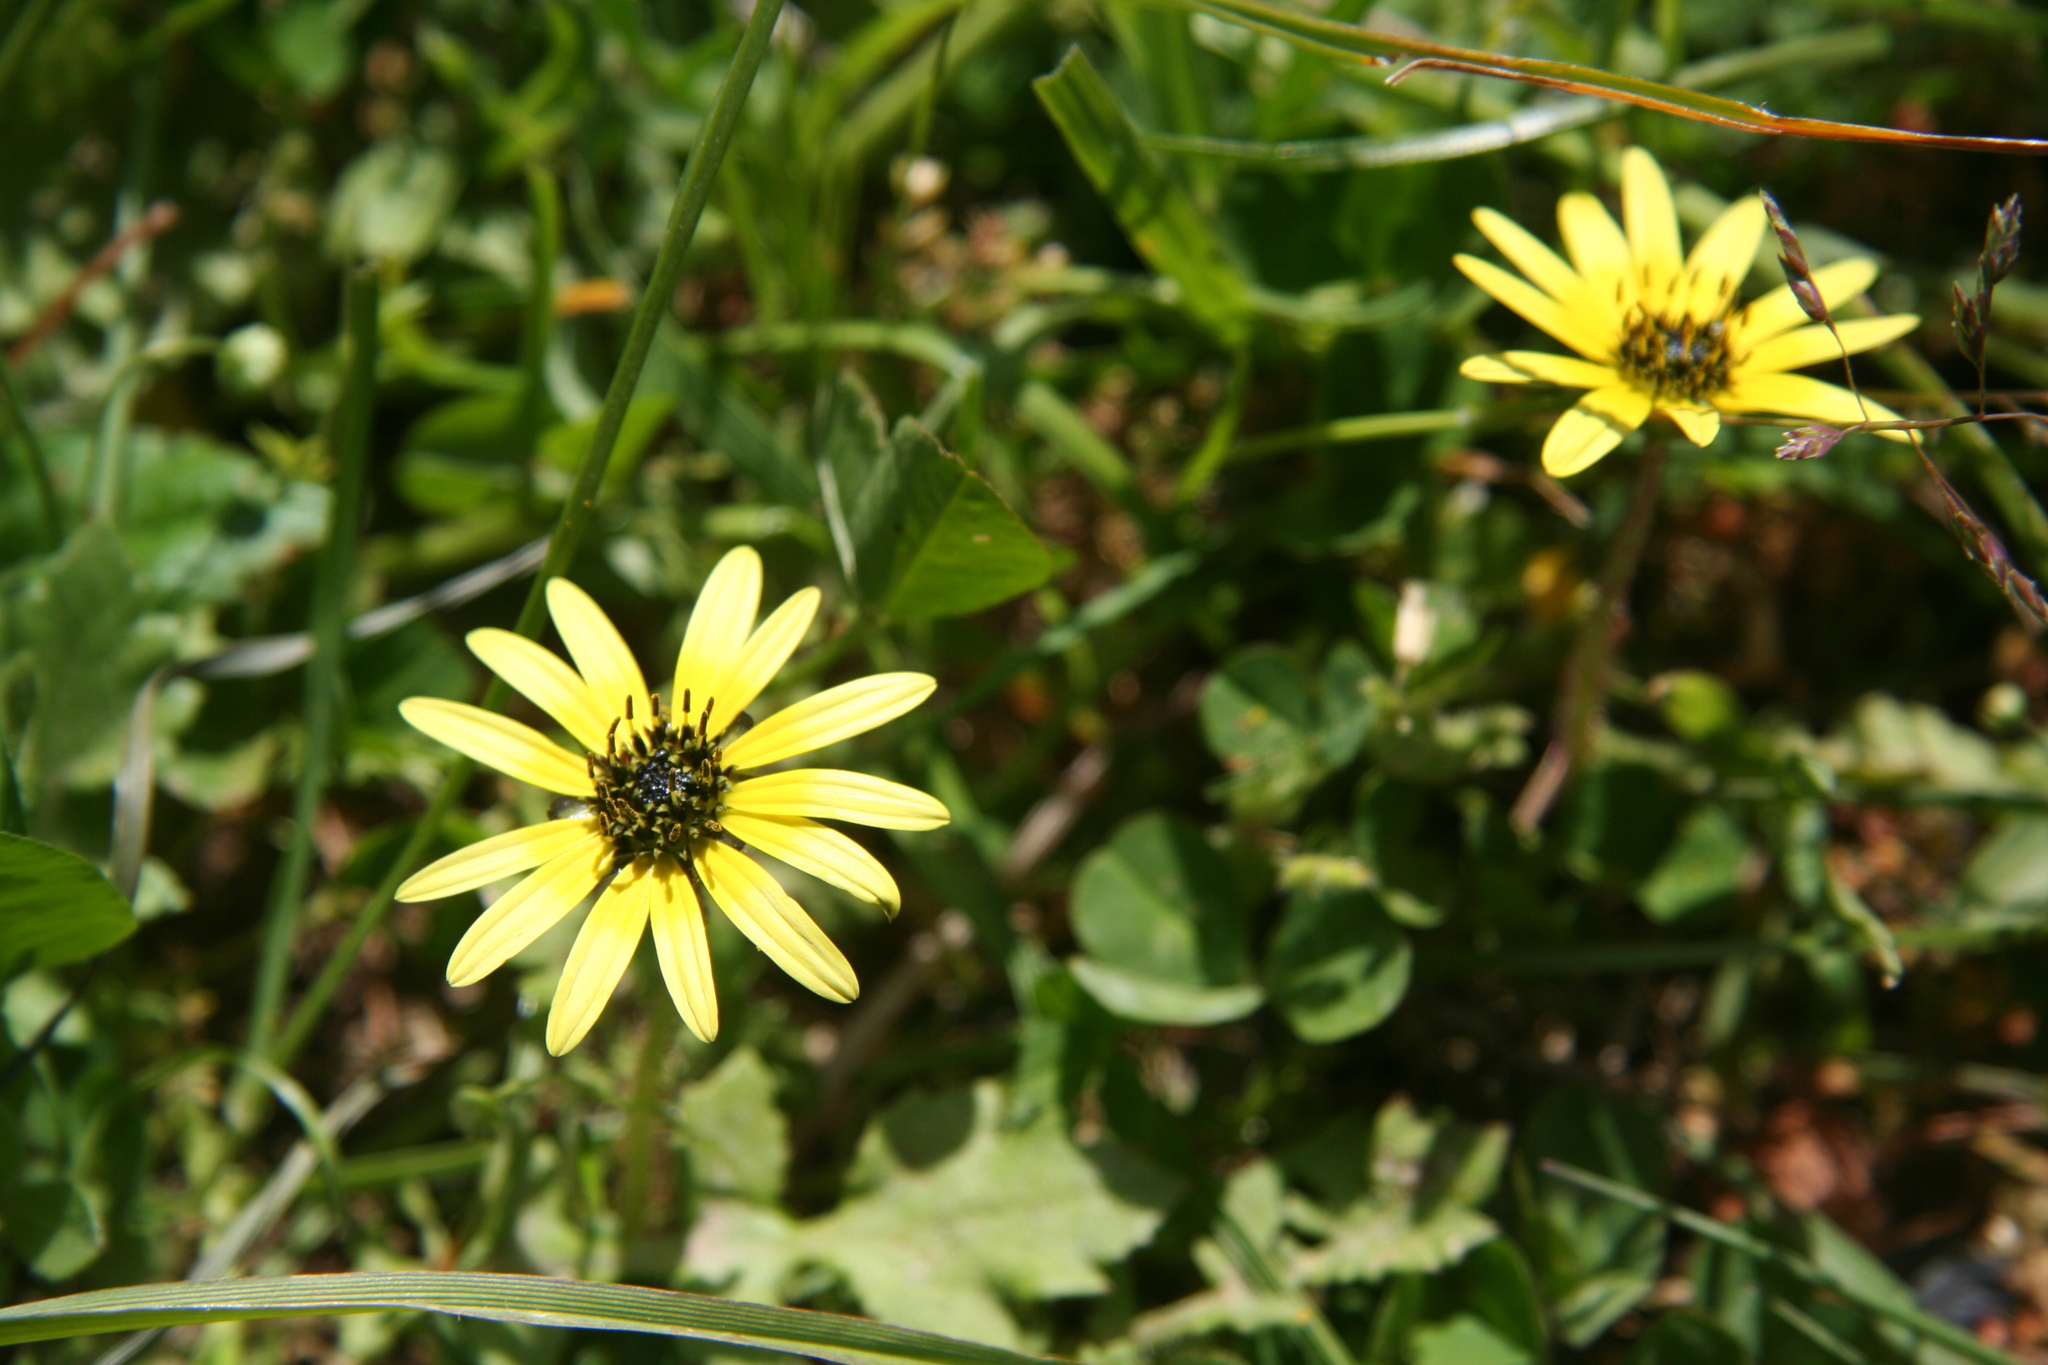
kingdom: Plantae
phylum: Tracheophyta
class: Magnoliopsida
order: Asterales
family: Asteraceae
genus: Arctotheca
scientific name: Arctotheca calendula
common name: Capeweed
